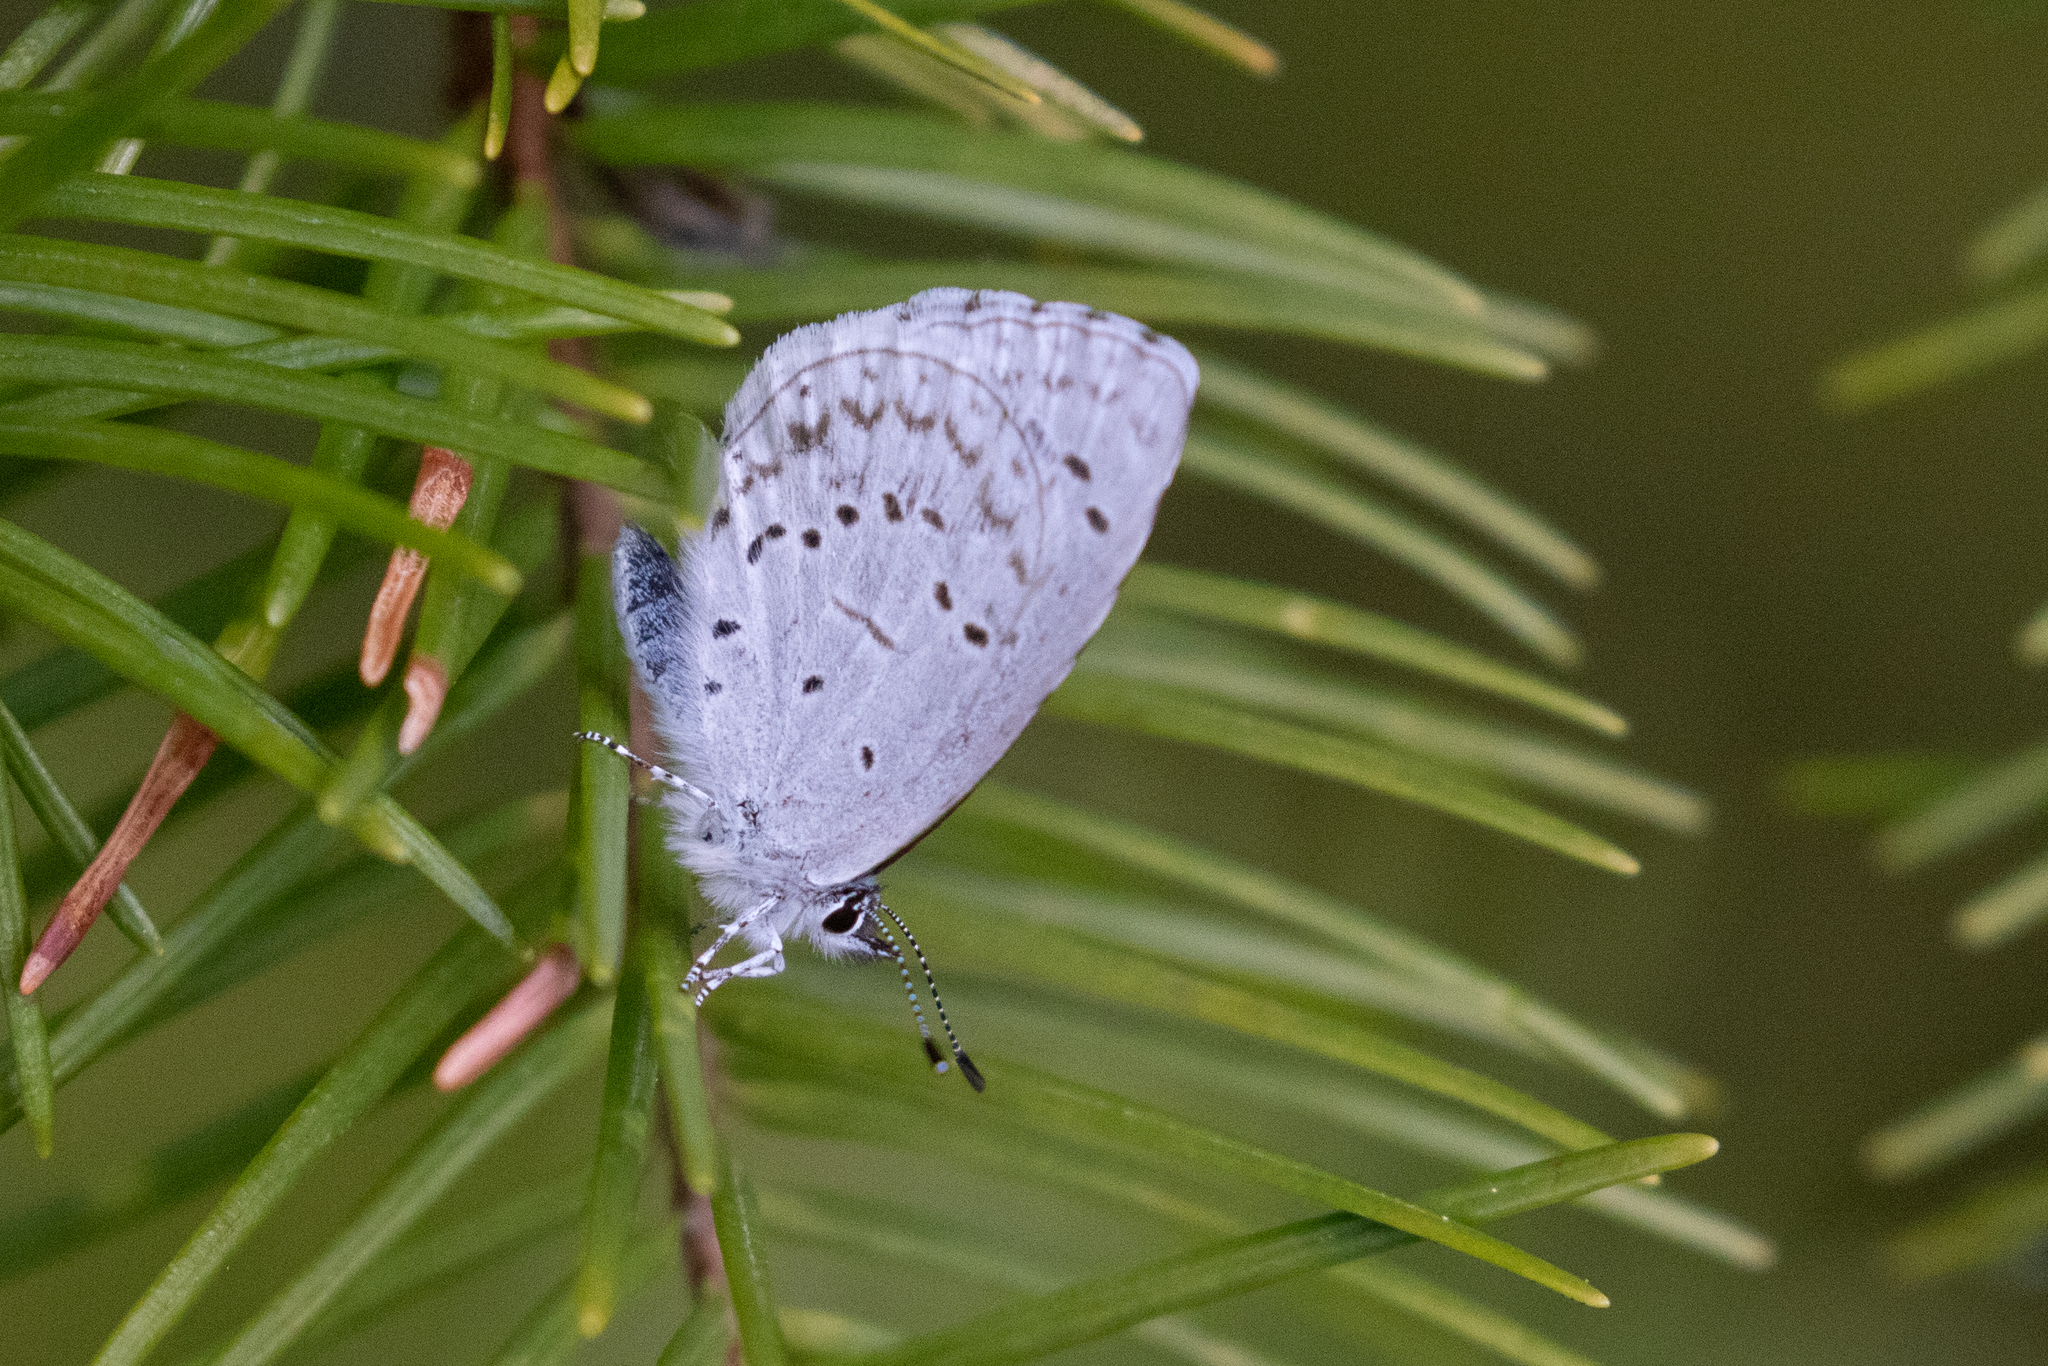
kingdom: Animalia
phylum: Arthropoda
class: Insecta
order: Lepidoptera
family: Lycaenidae
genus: Celastrina
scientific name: Celastrina ladon
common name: Spring azure
